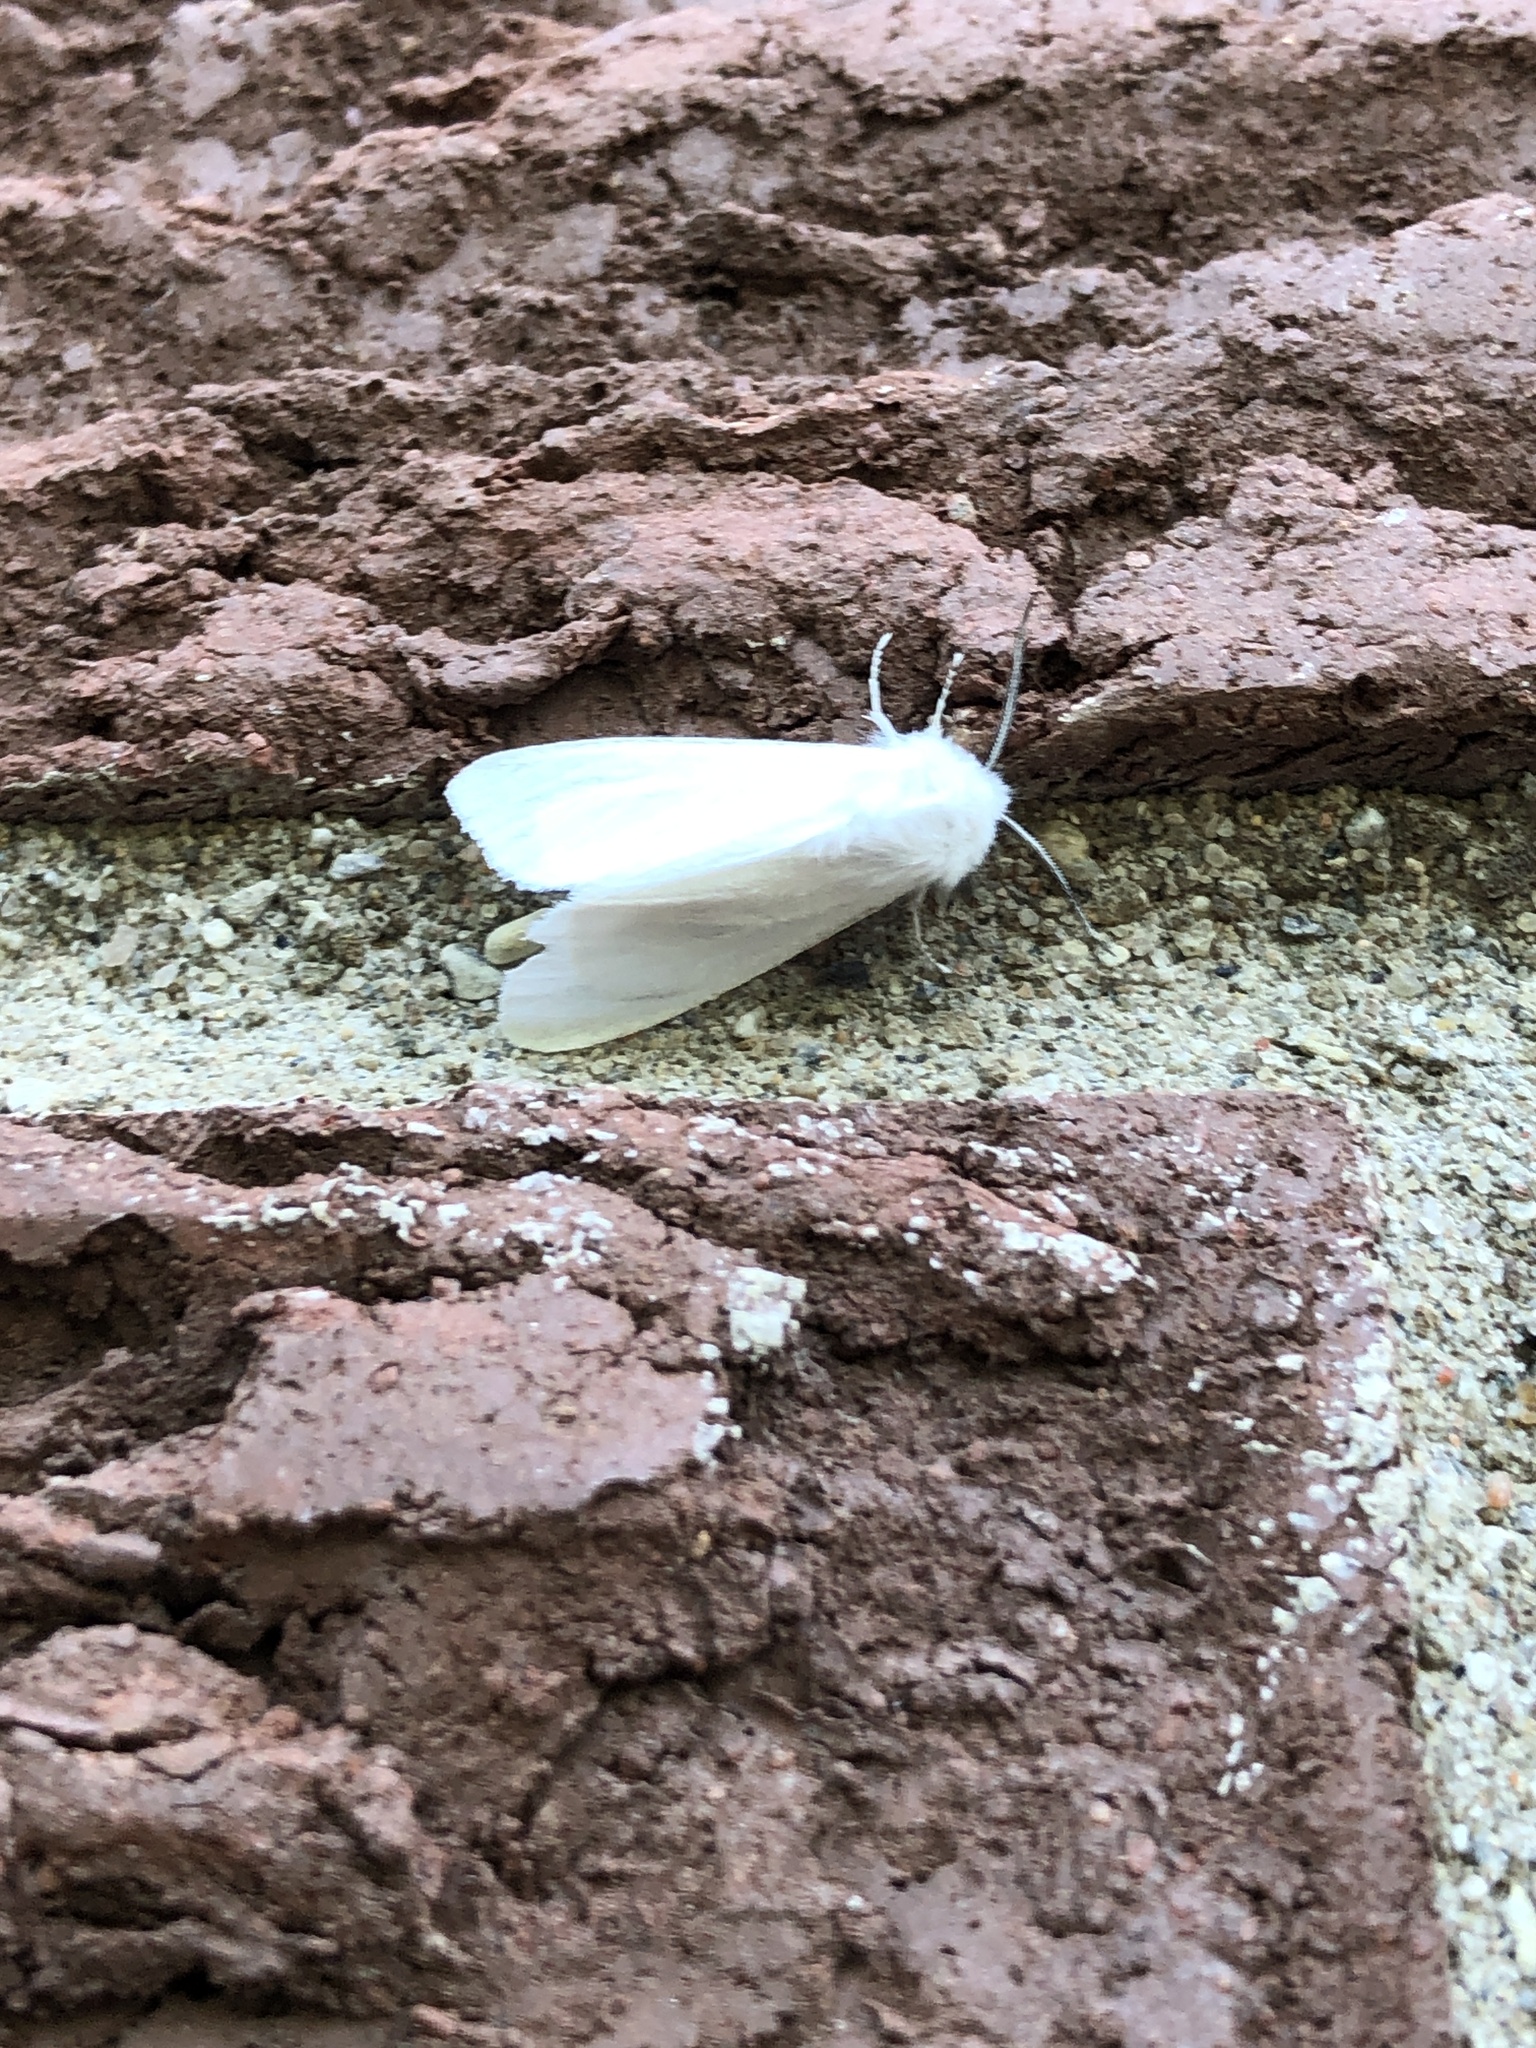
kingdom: Animalia
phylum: Arthropoda
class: Insecta
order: Lepidoptera
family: Erebidae
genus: Hyphantria
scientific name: Hyphantria cunea
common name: American white moth
